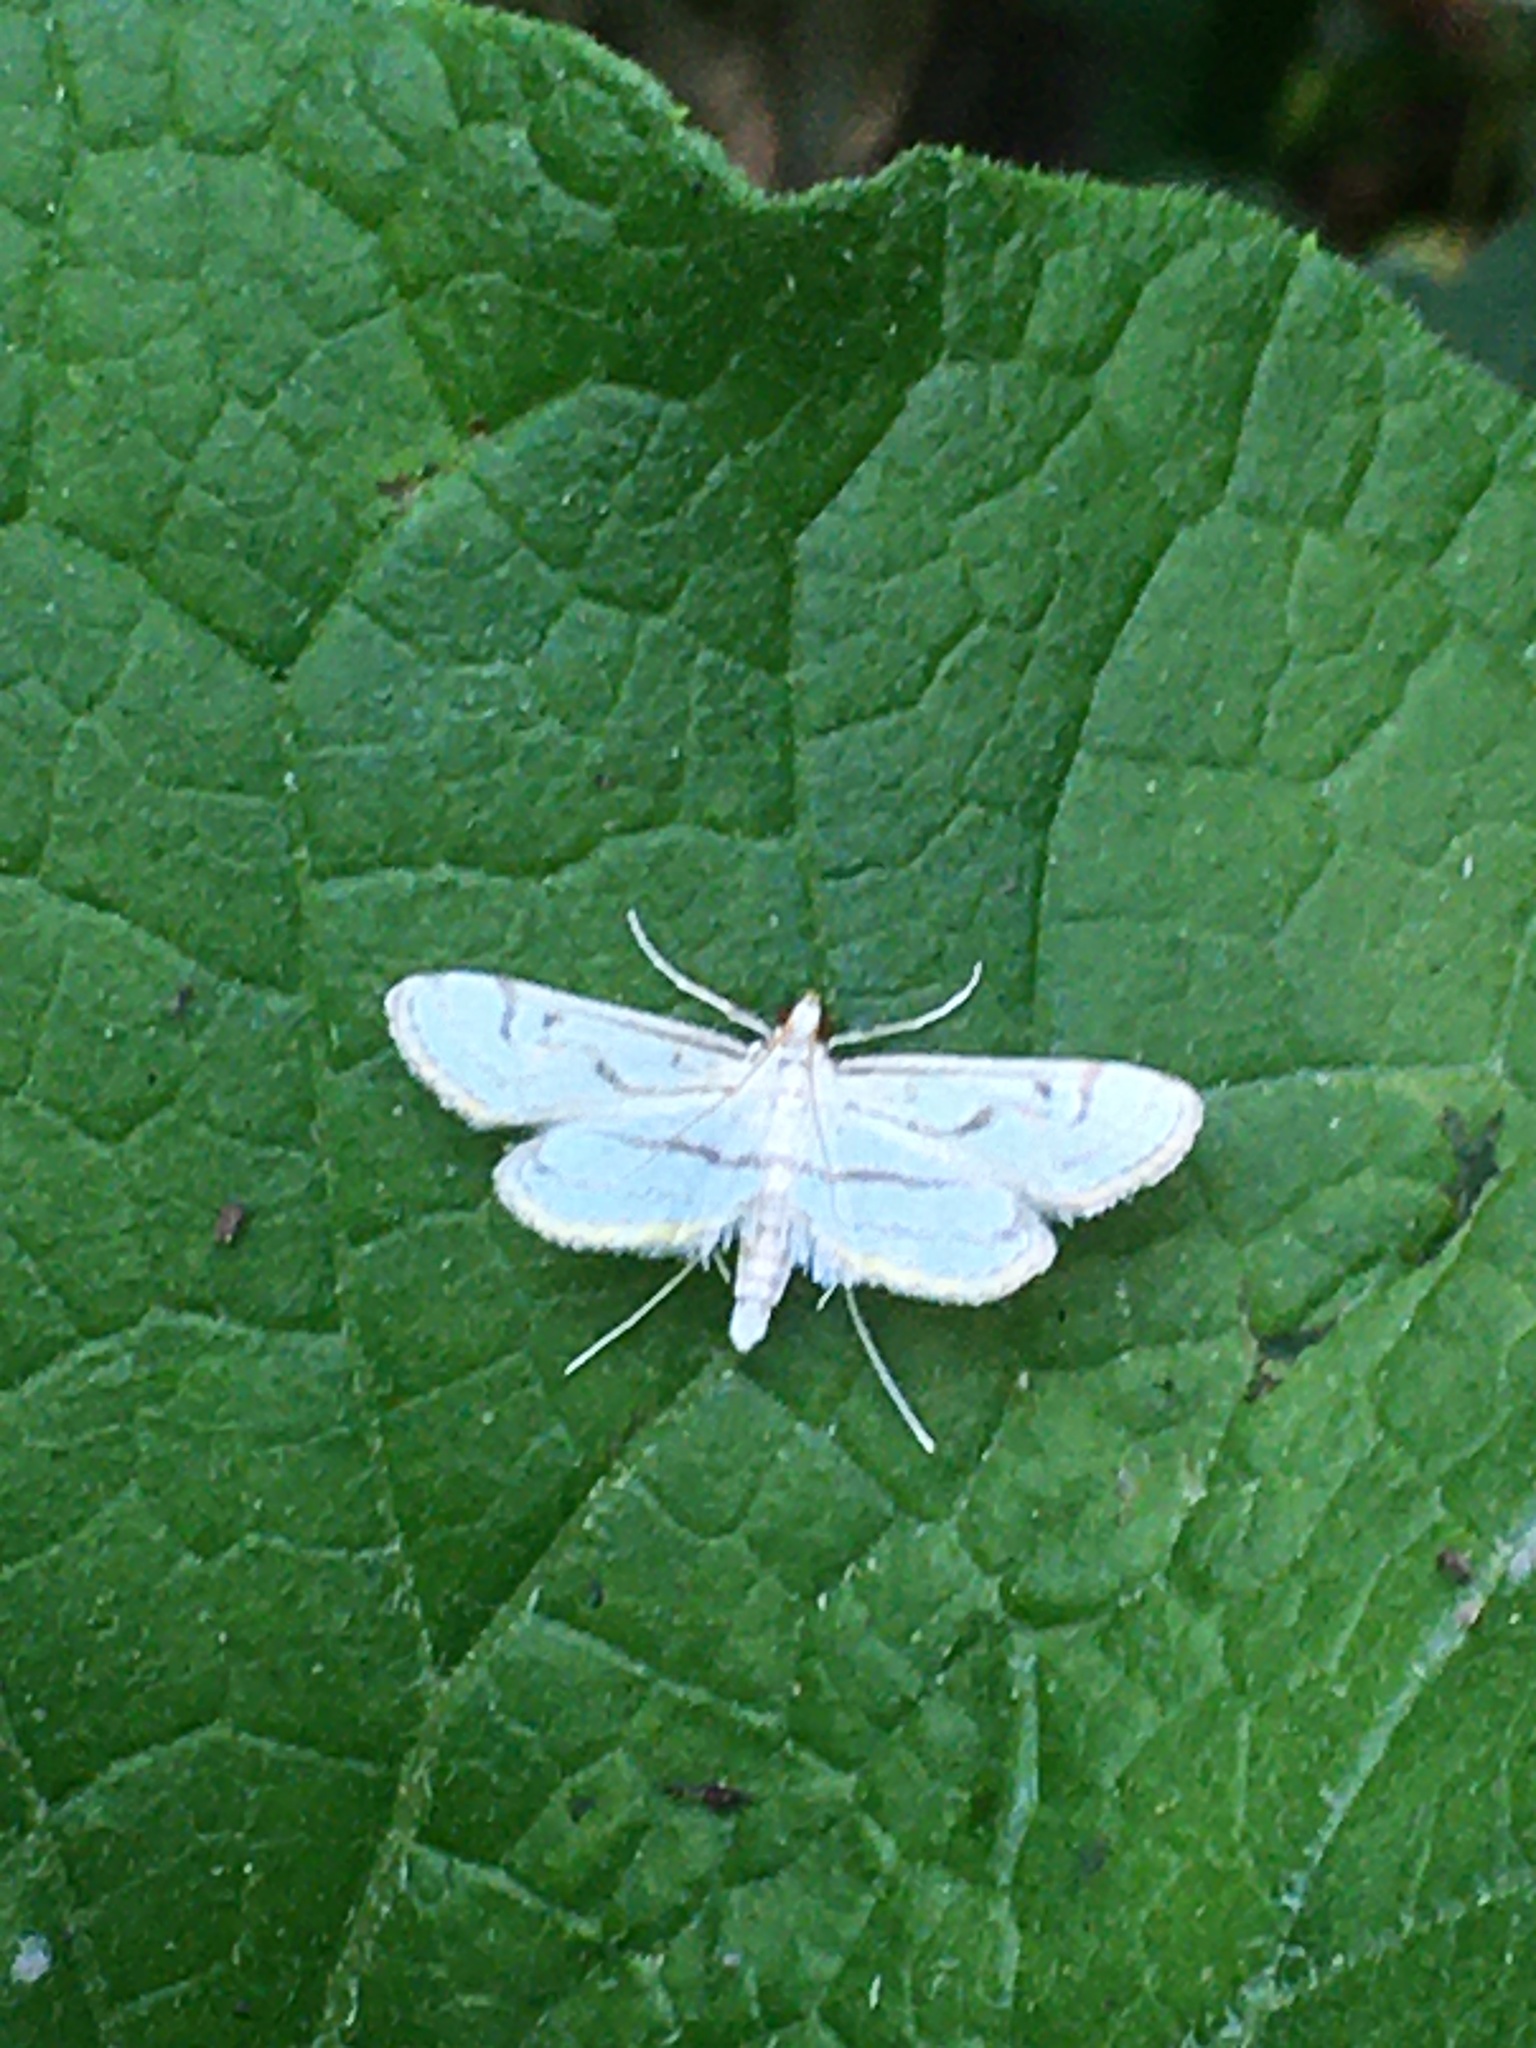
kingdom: Animalia
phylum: Arthropoda
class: Insecta
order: Lepidoptera
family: Crambidae
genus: Parapoynx
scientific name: Parapoynx badiusalis
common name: Chestnut-marked pondweed moth
